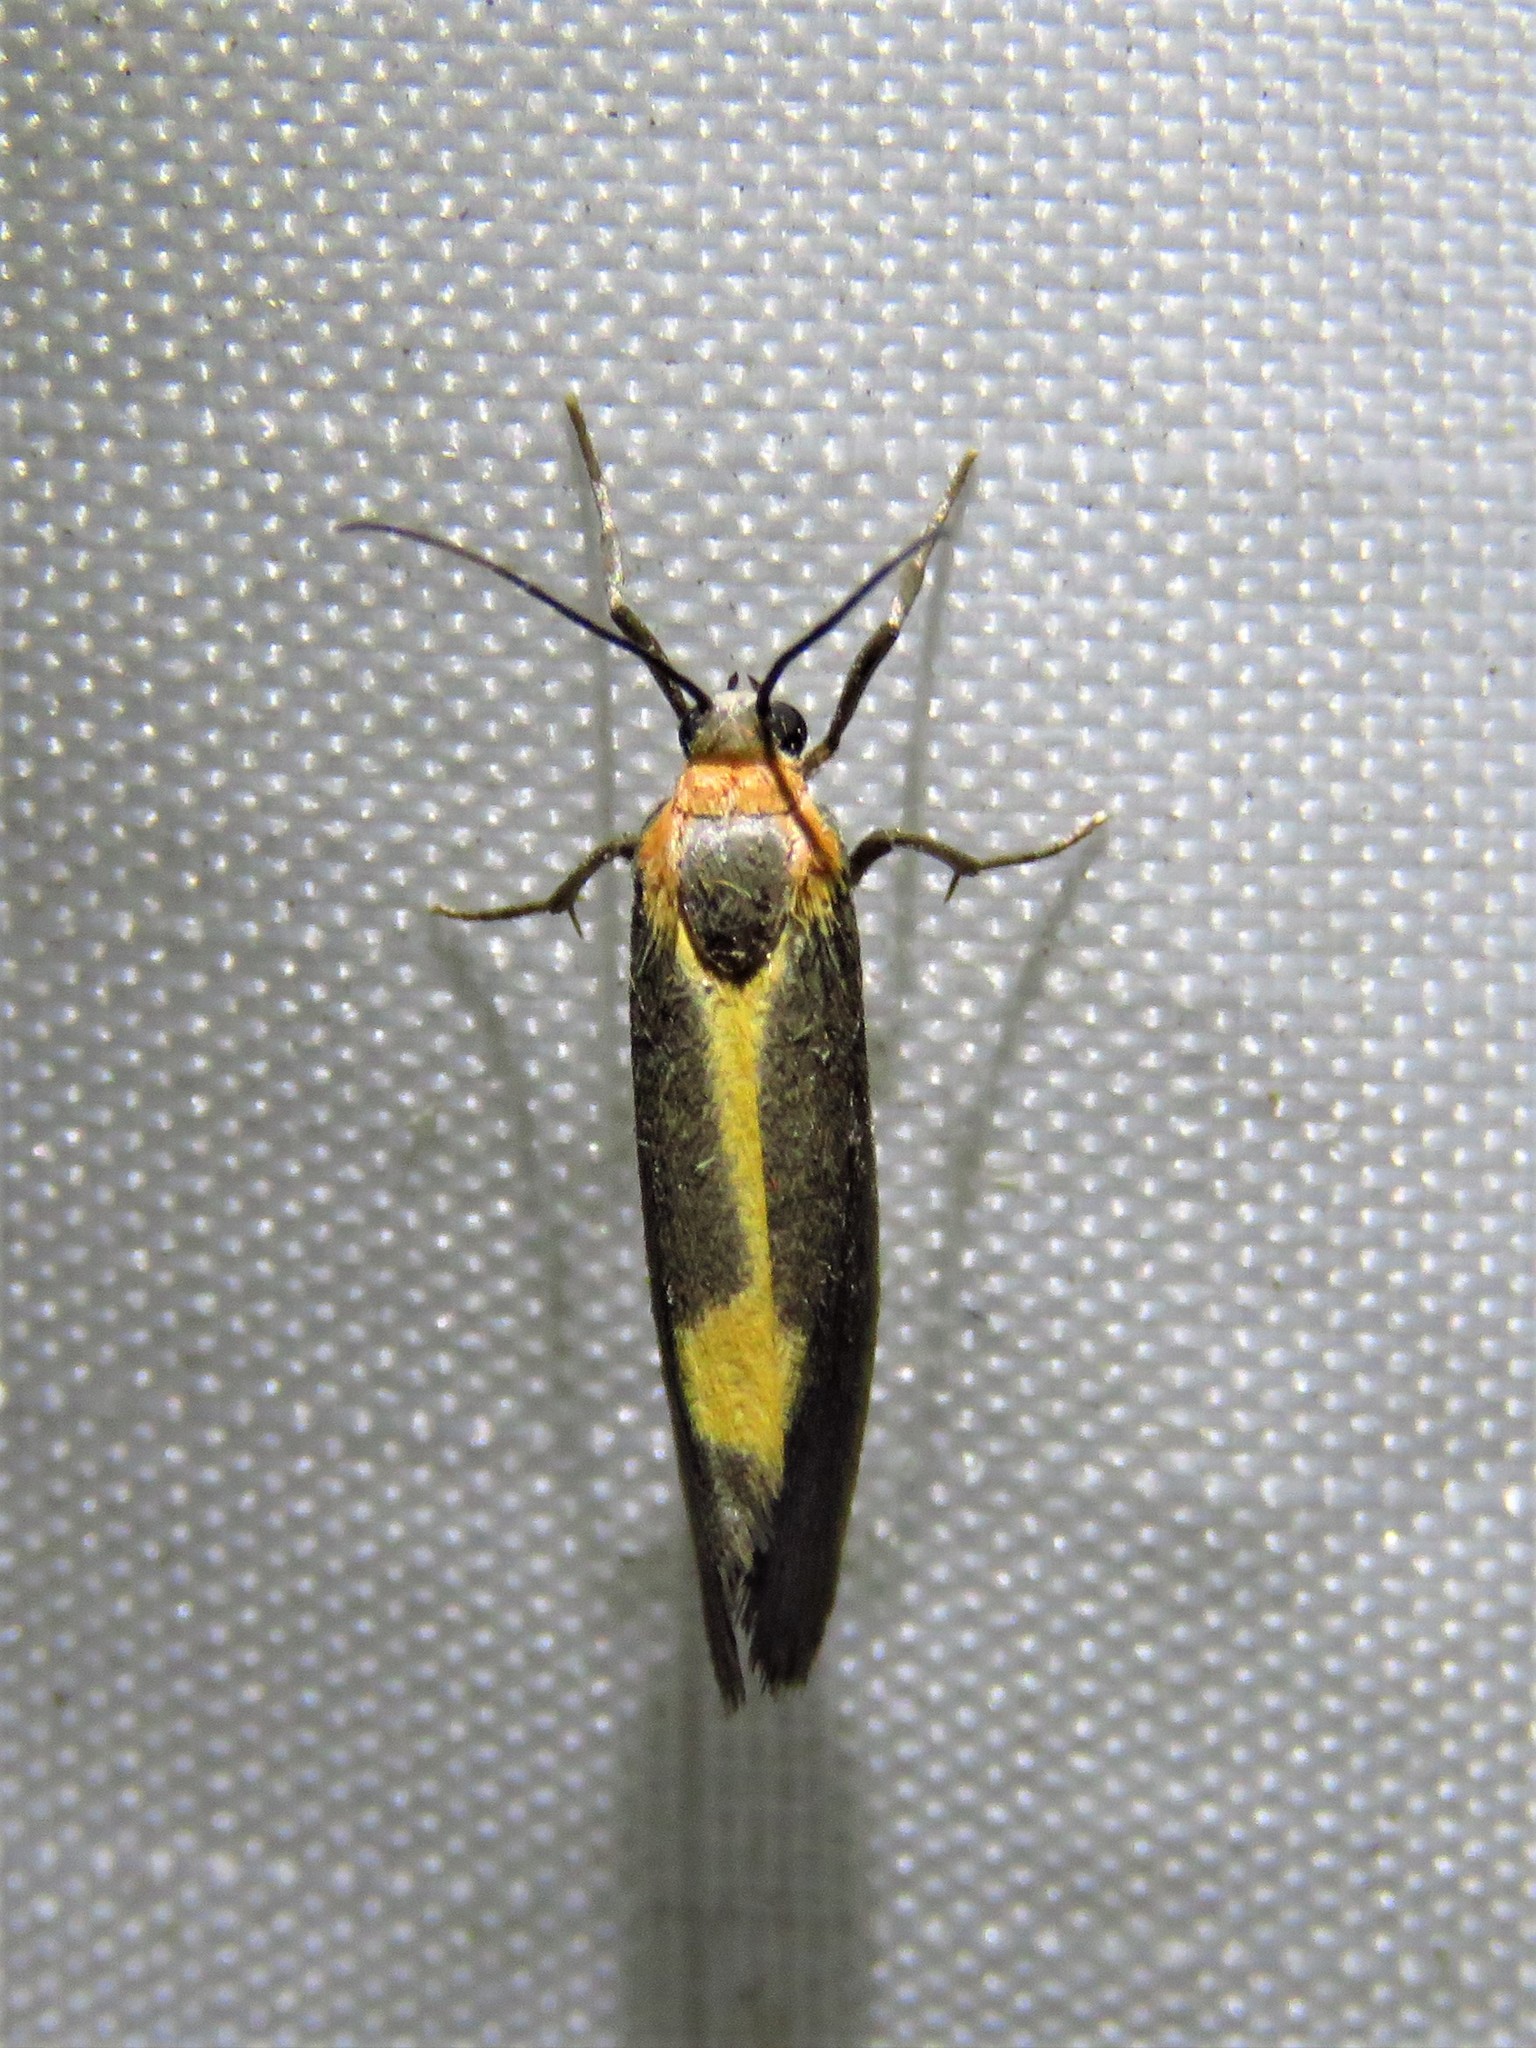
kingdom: Animalia
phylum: Arthropoda
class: Insecta
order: Lepidoptera
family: Erebidae
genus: Cisthene
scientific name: Cisthene plumbea
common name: Lead colored lichen moth
